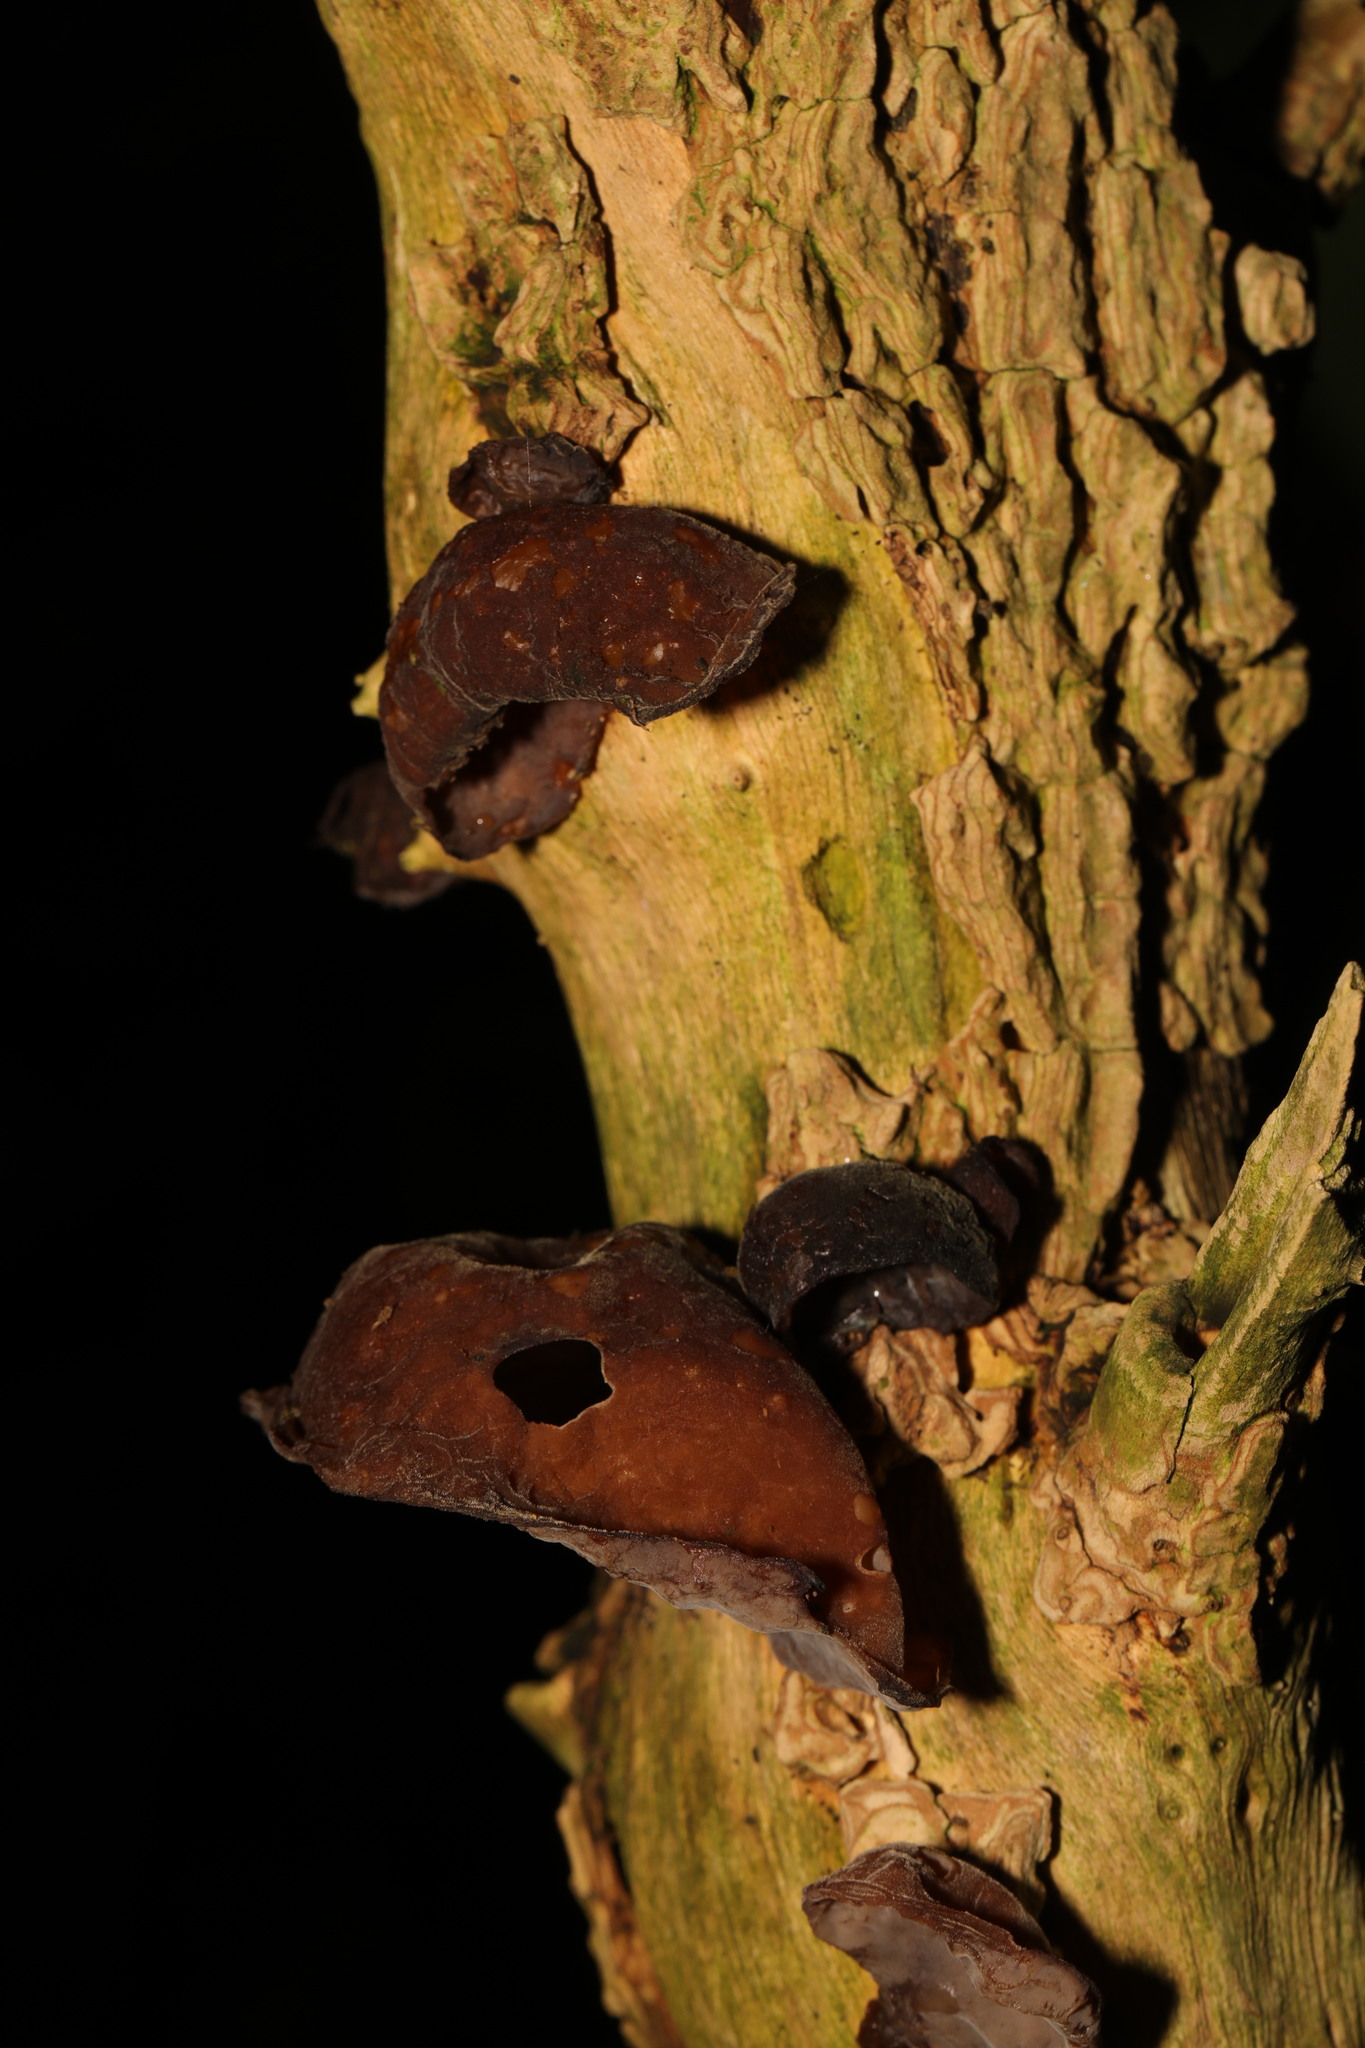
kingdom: Fungi
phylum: Basidiomycota
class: Agaricomycetes
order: Auriculariales
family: Auriculariaceae
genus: Auricularia
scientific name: Auricularia auricula-judae
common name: Jelly ear
